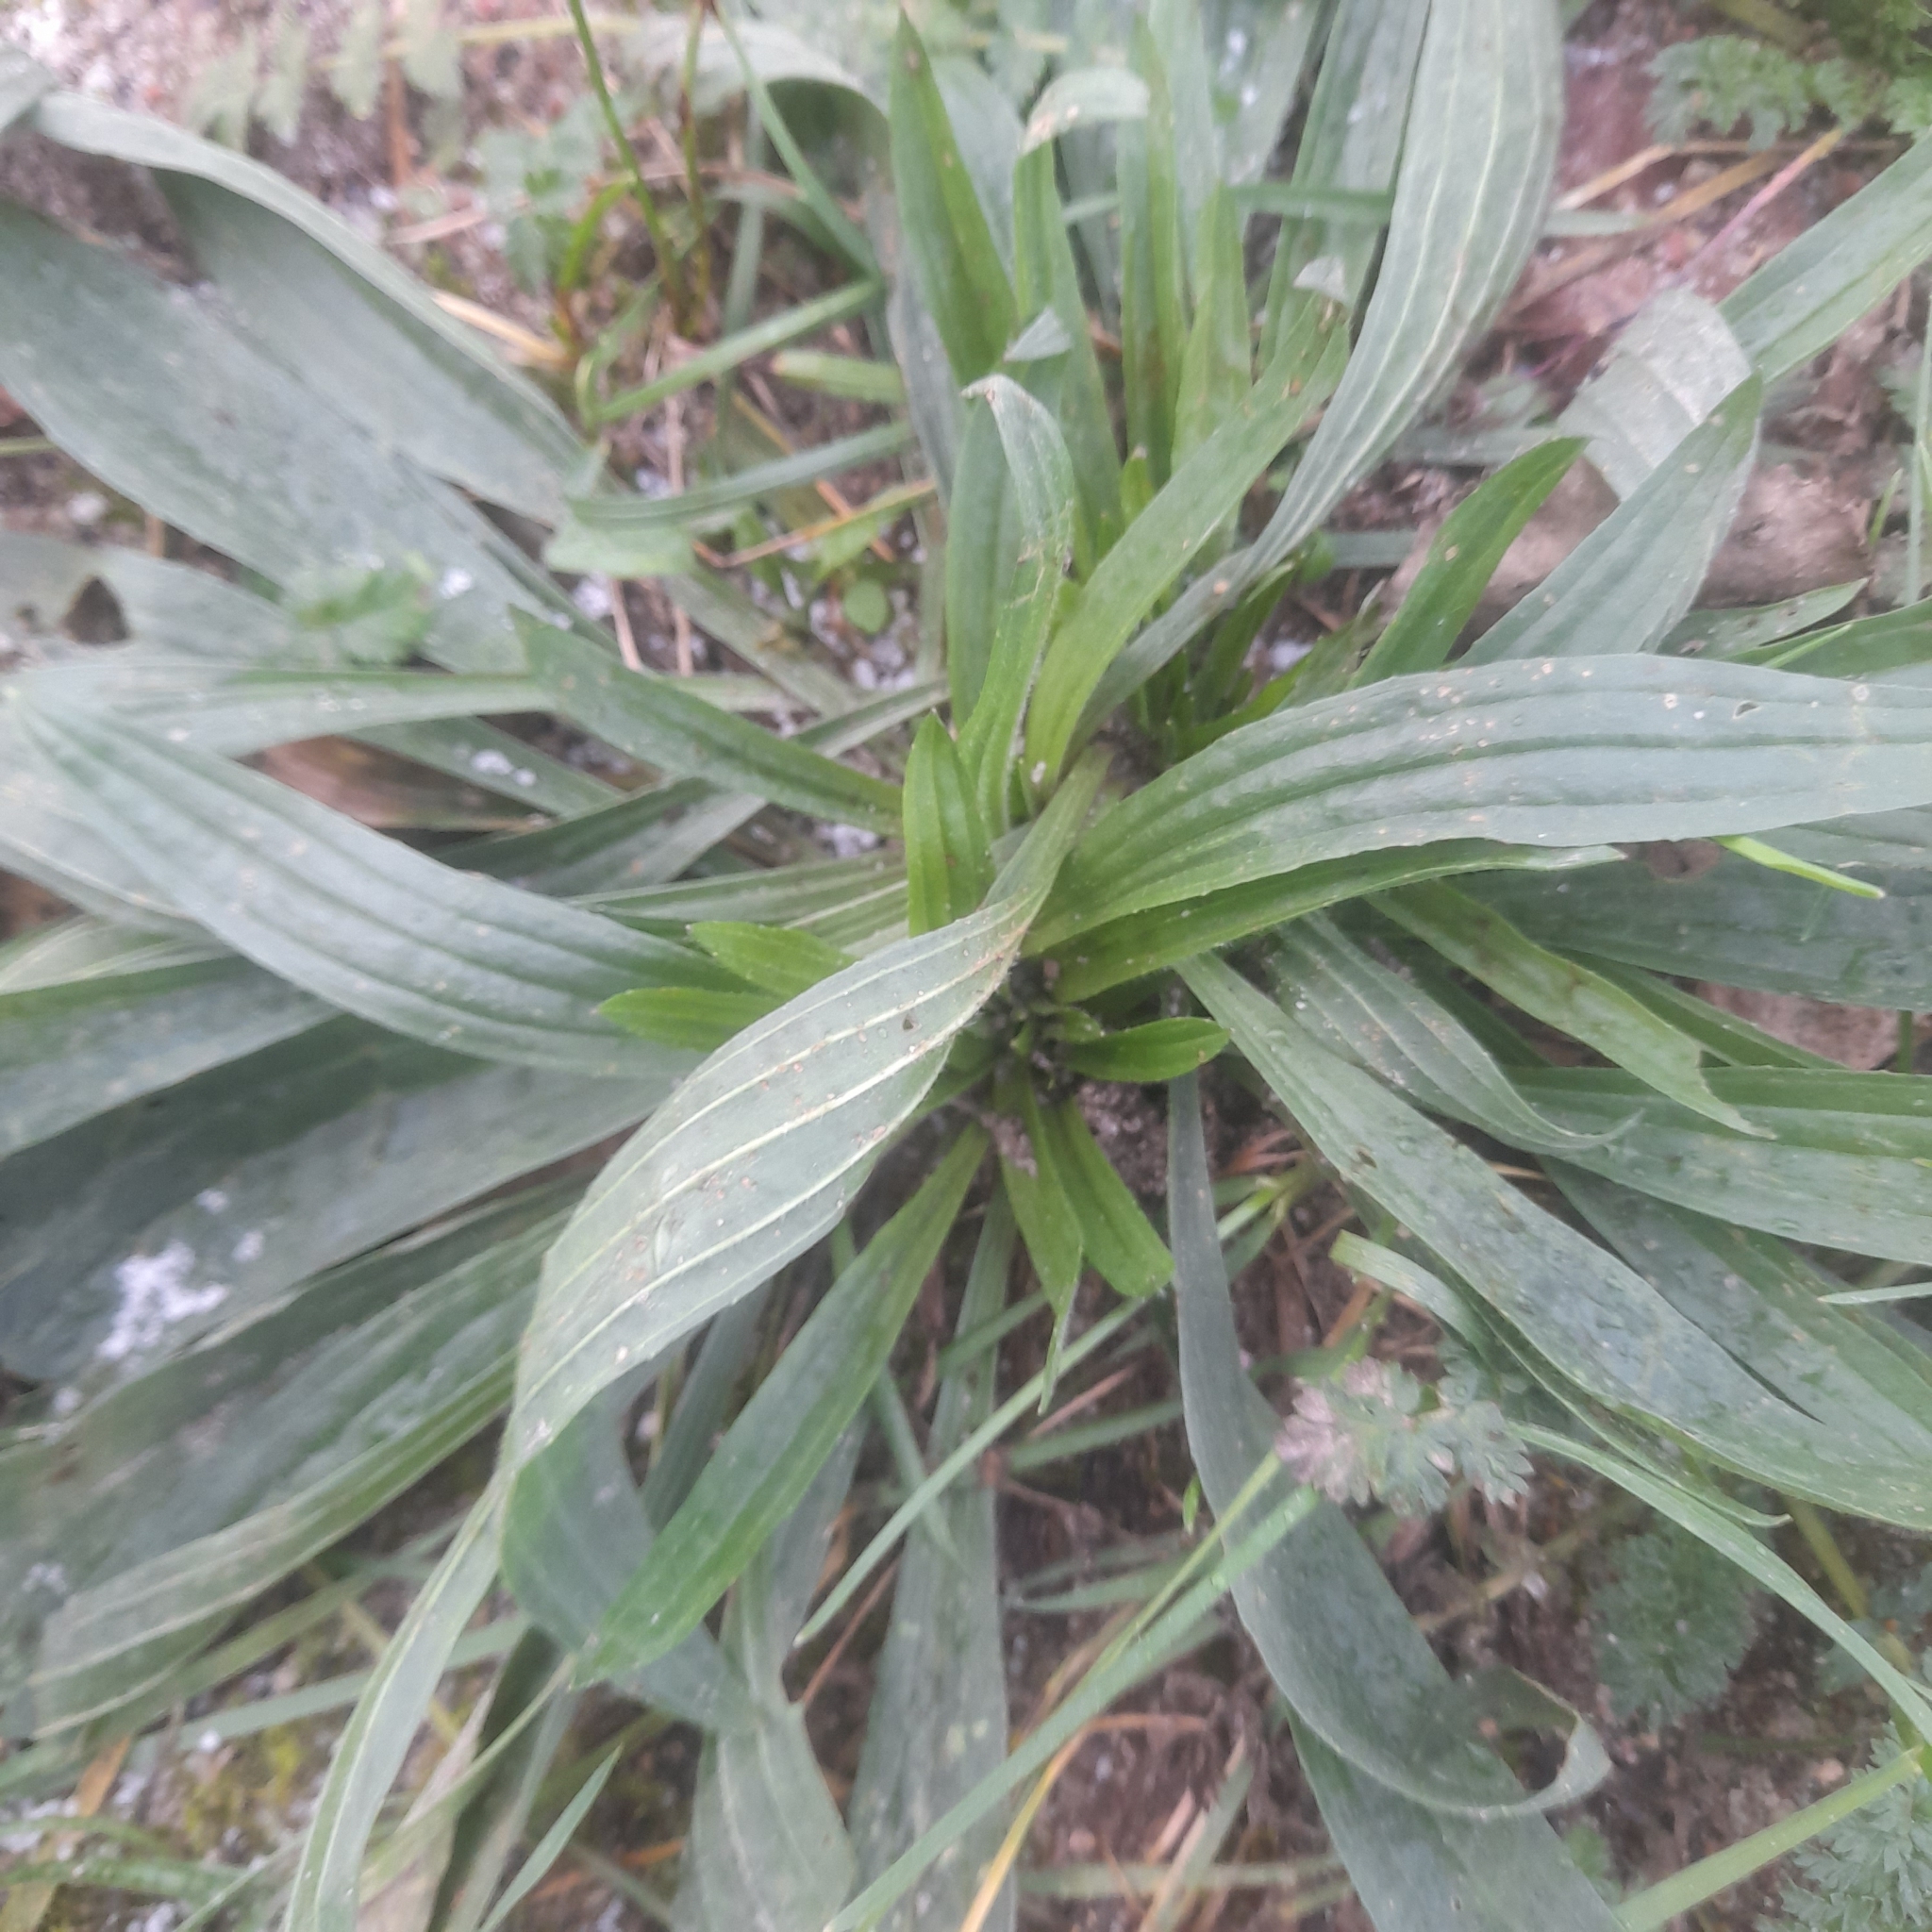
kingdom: Plantae
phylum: Tracheophyta
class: Magnoliopsida
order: Lamiales
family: Plantaginaceae
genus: Plantago
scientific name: Plantago lanceolata
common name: Ribwort plantain
